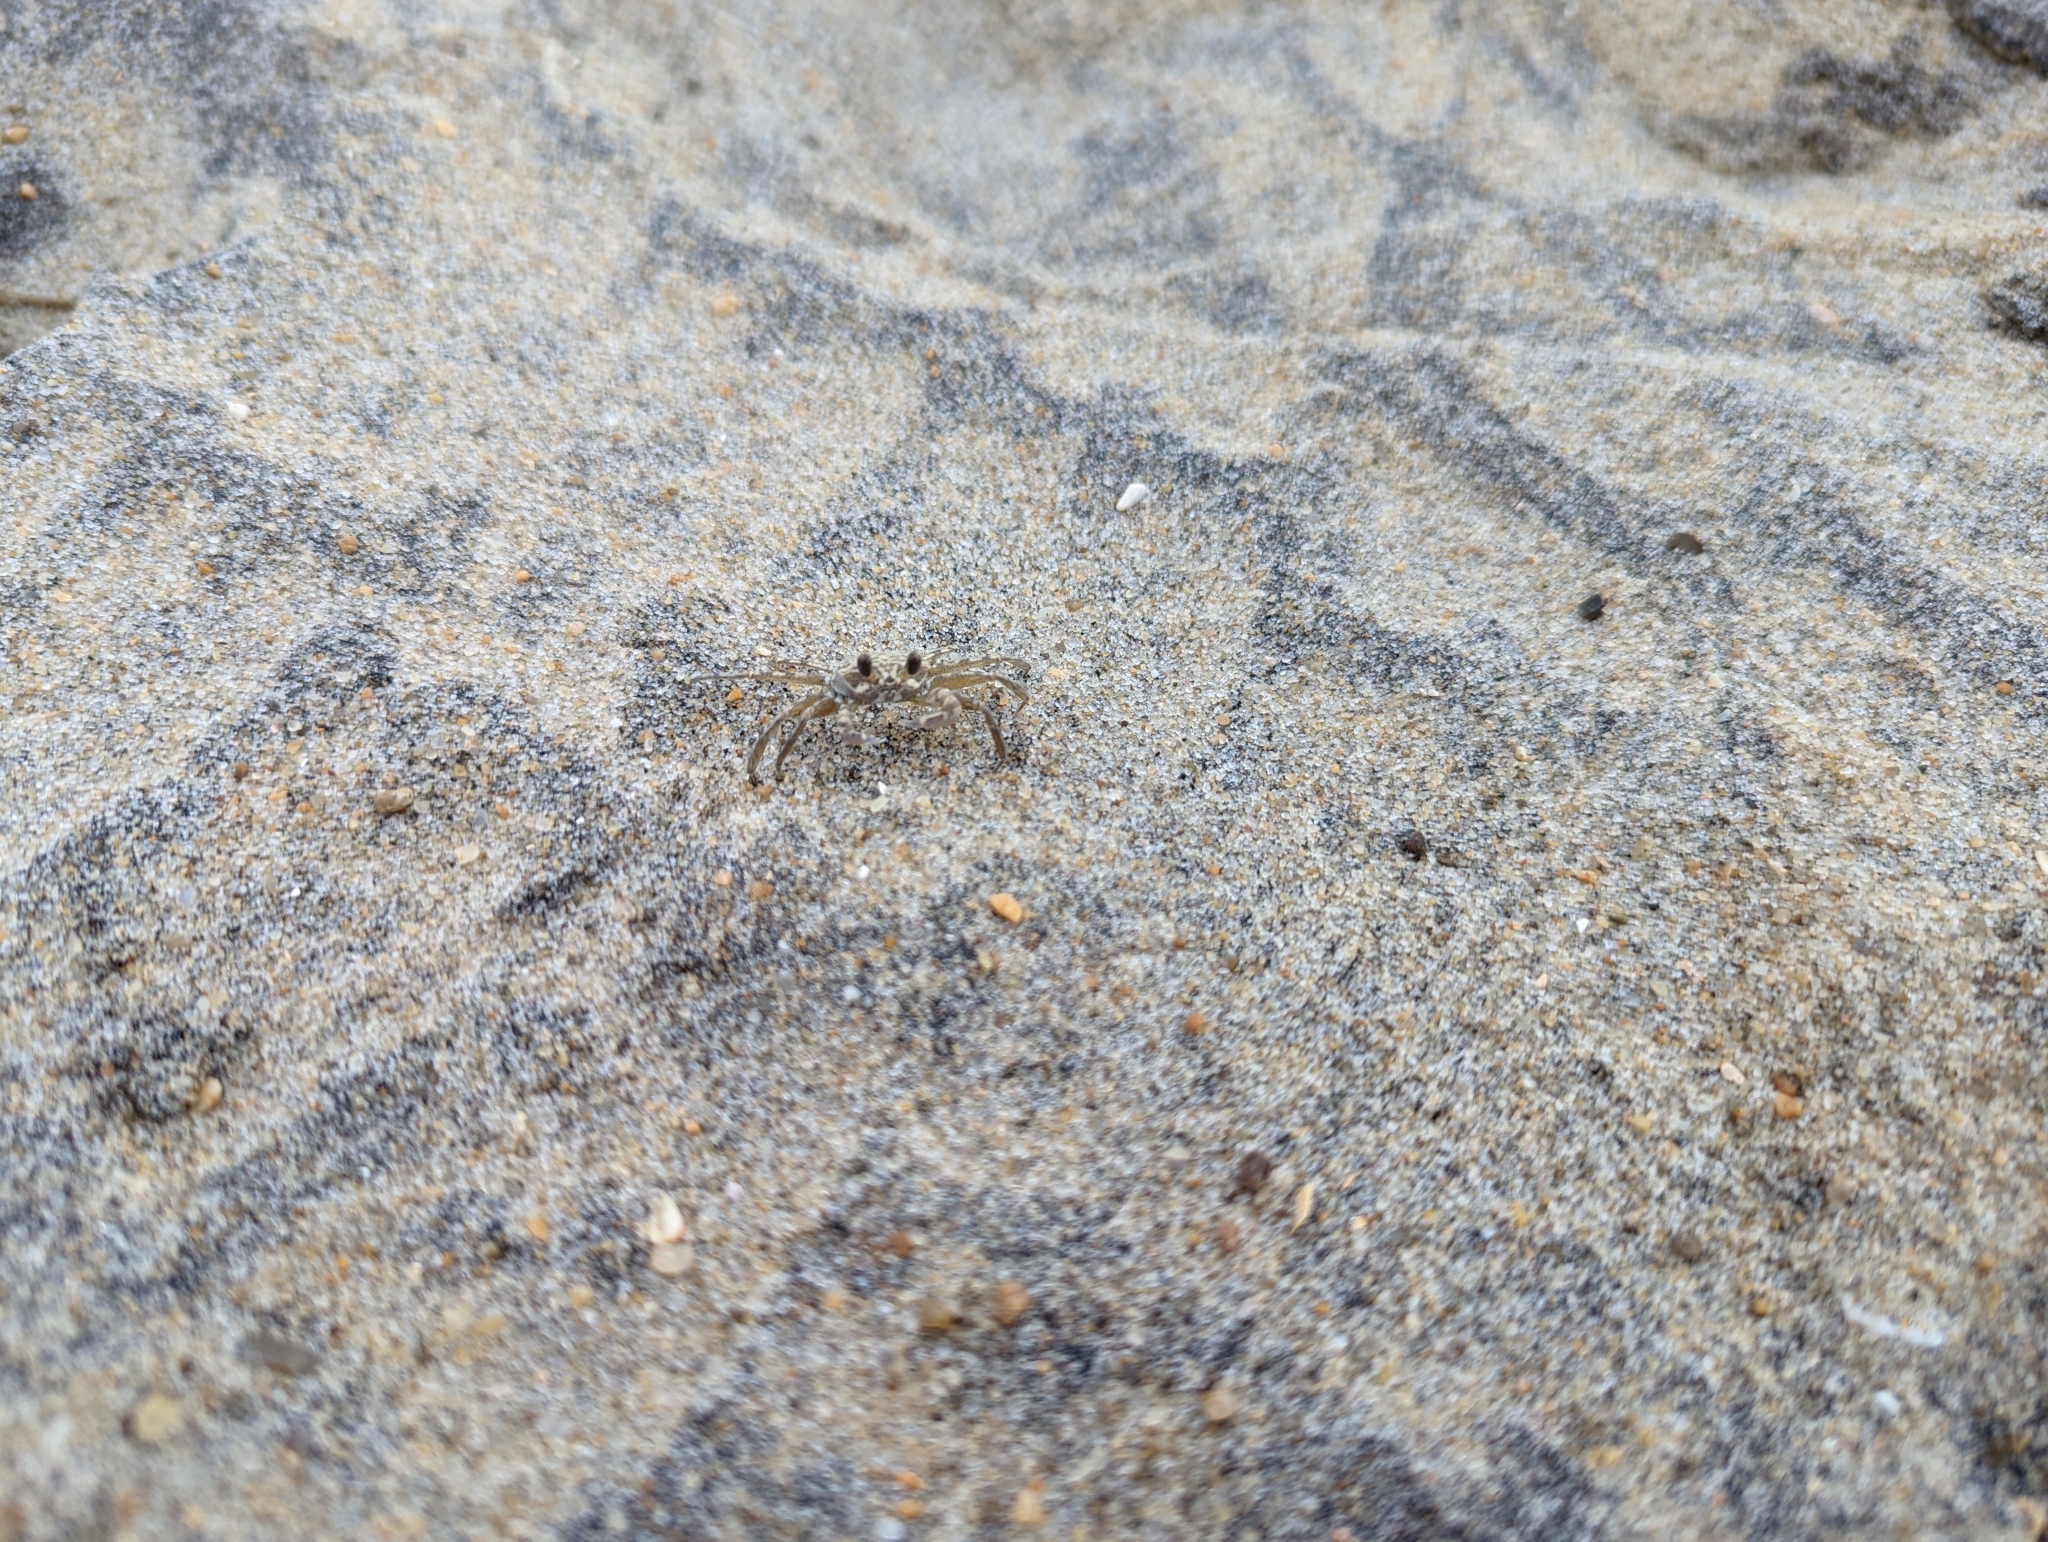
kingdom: Animalia
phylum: Arthropoda
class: Malacostraca
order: Decapoda
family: Ocypodidae
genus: Ocypode
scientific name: Ocypode quadrata
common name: Ghost crab
